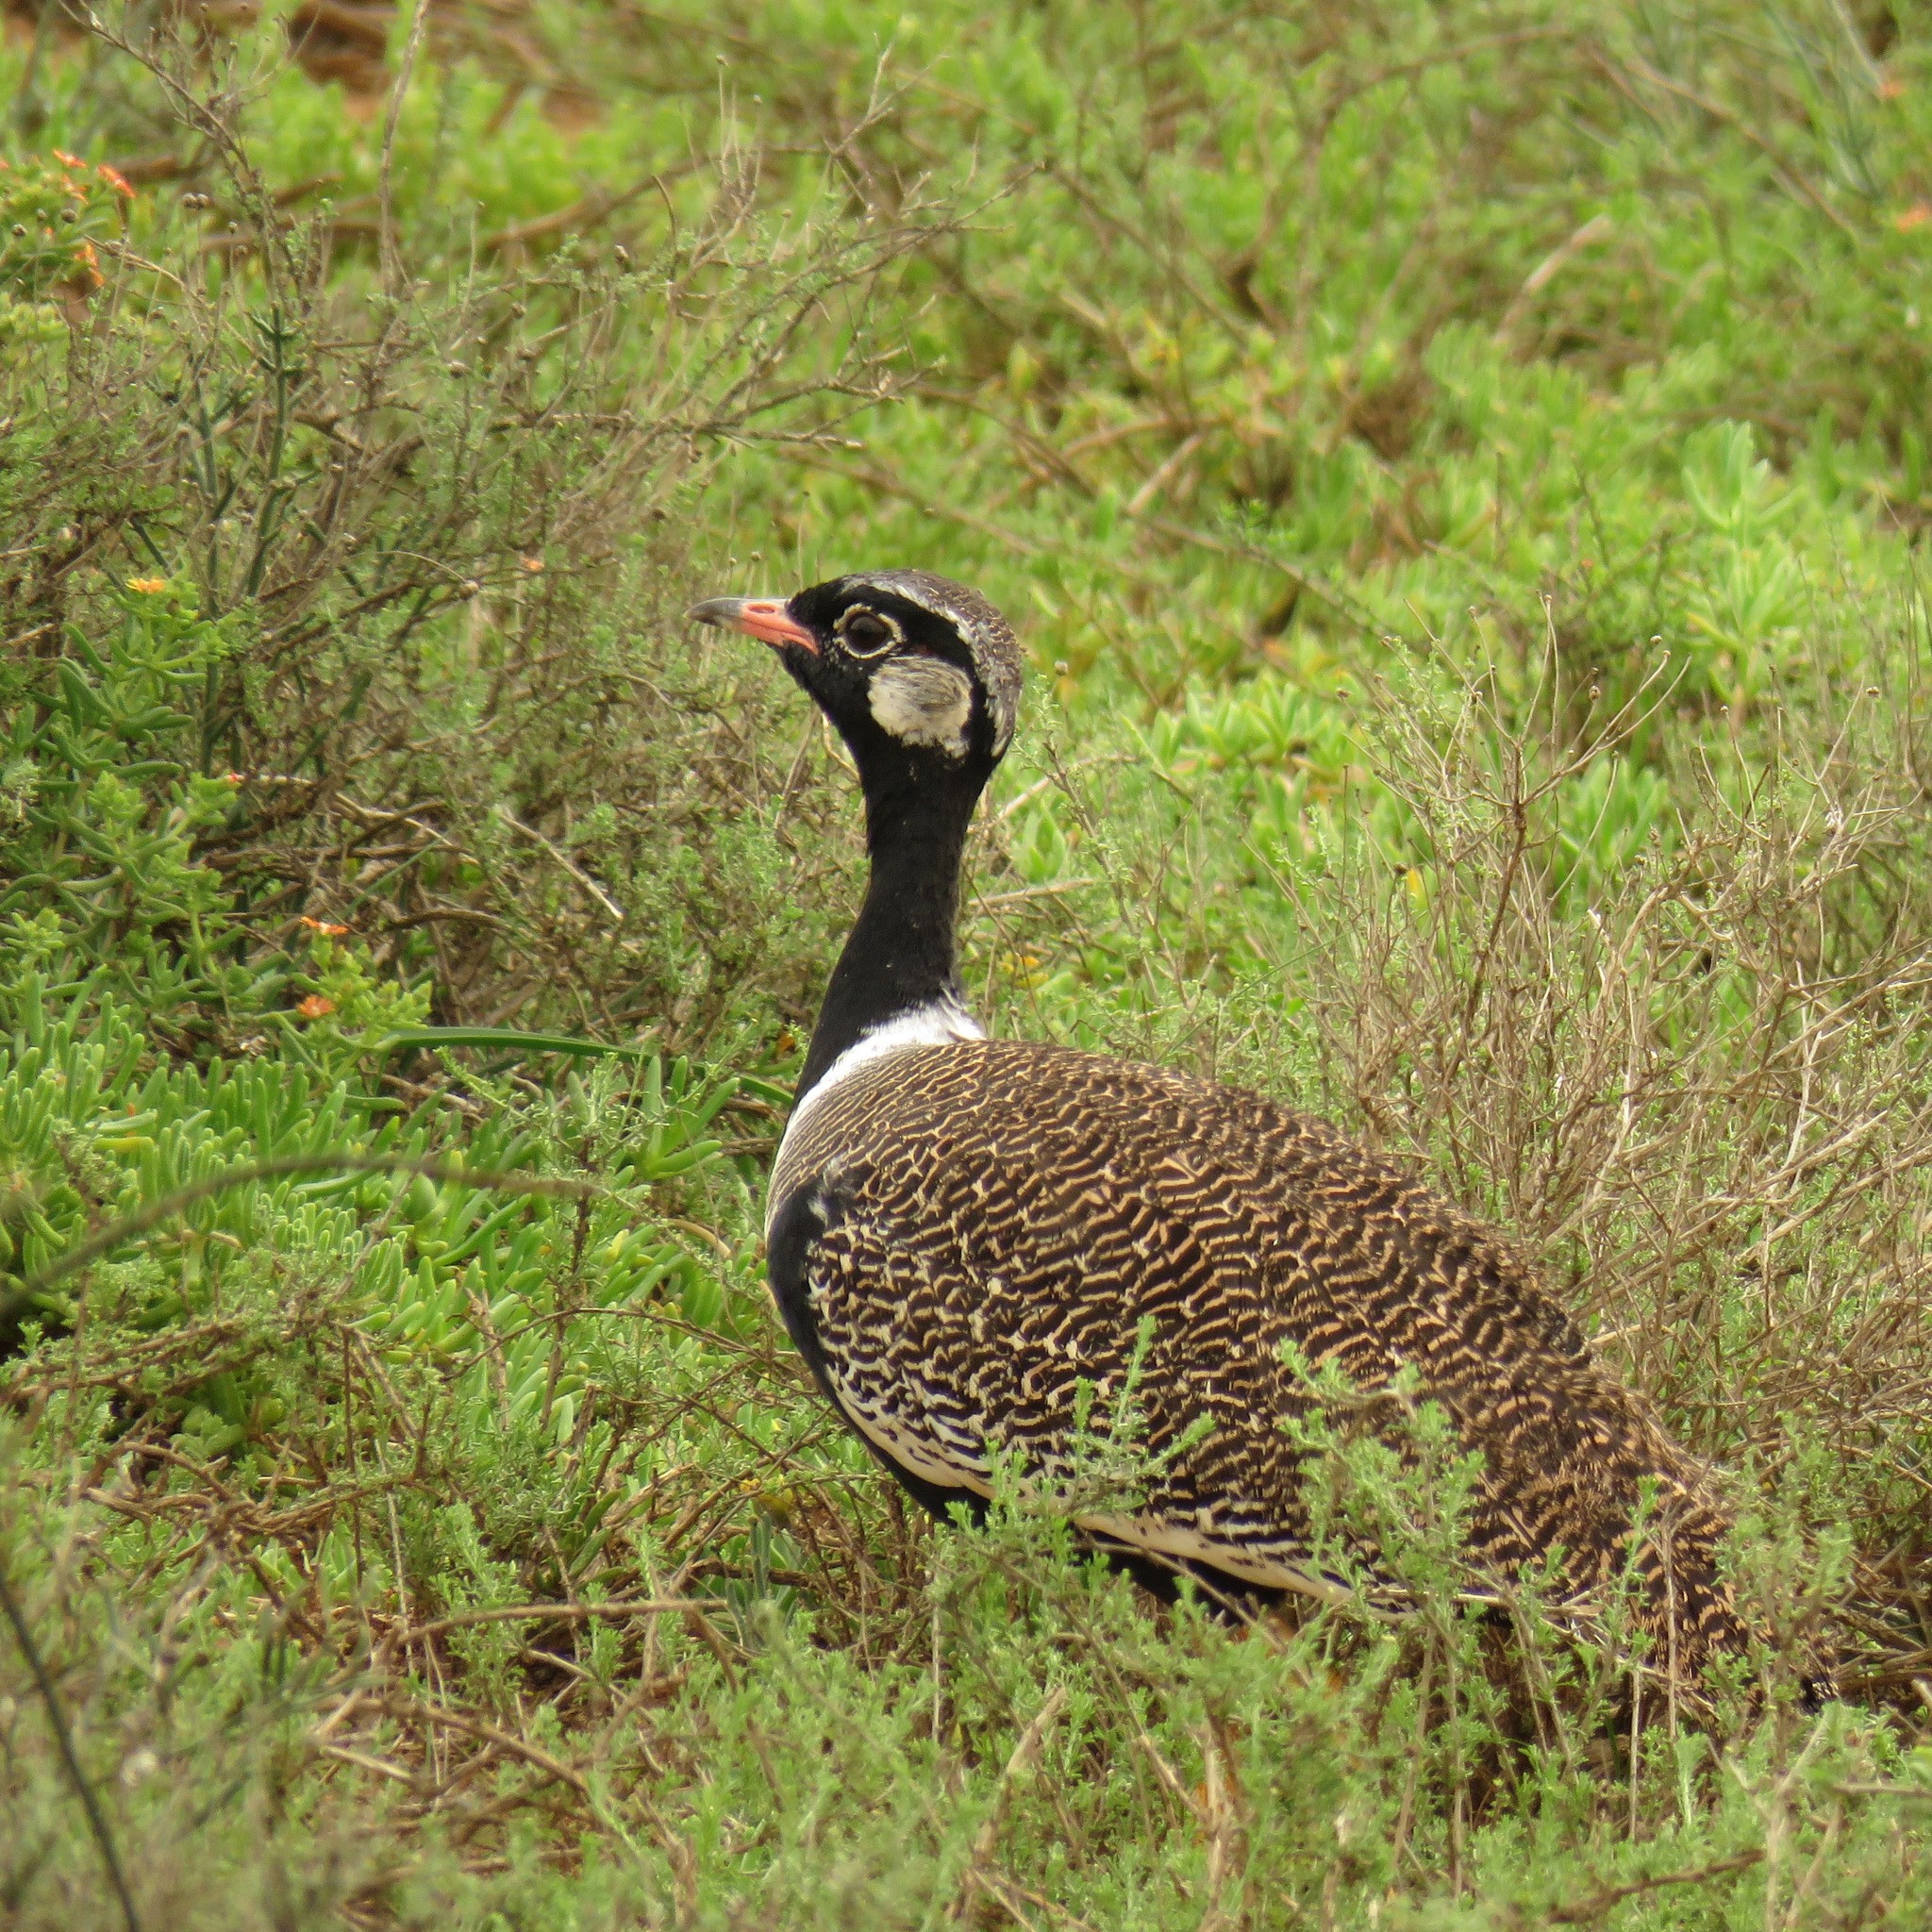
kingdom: Animalia
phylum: Chordata
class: Aves
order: Otidiformes
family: Otididae
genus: Afrotis
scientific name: Afrotis afra
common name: Southern black korhaan
